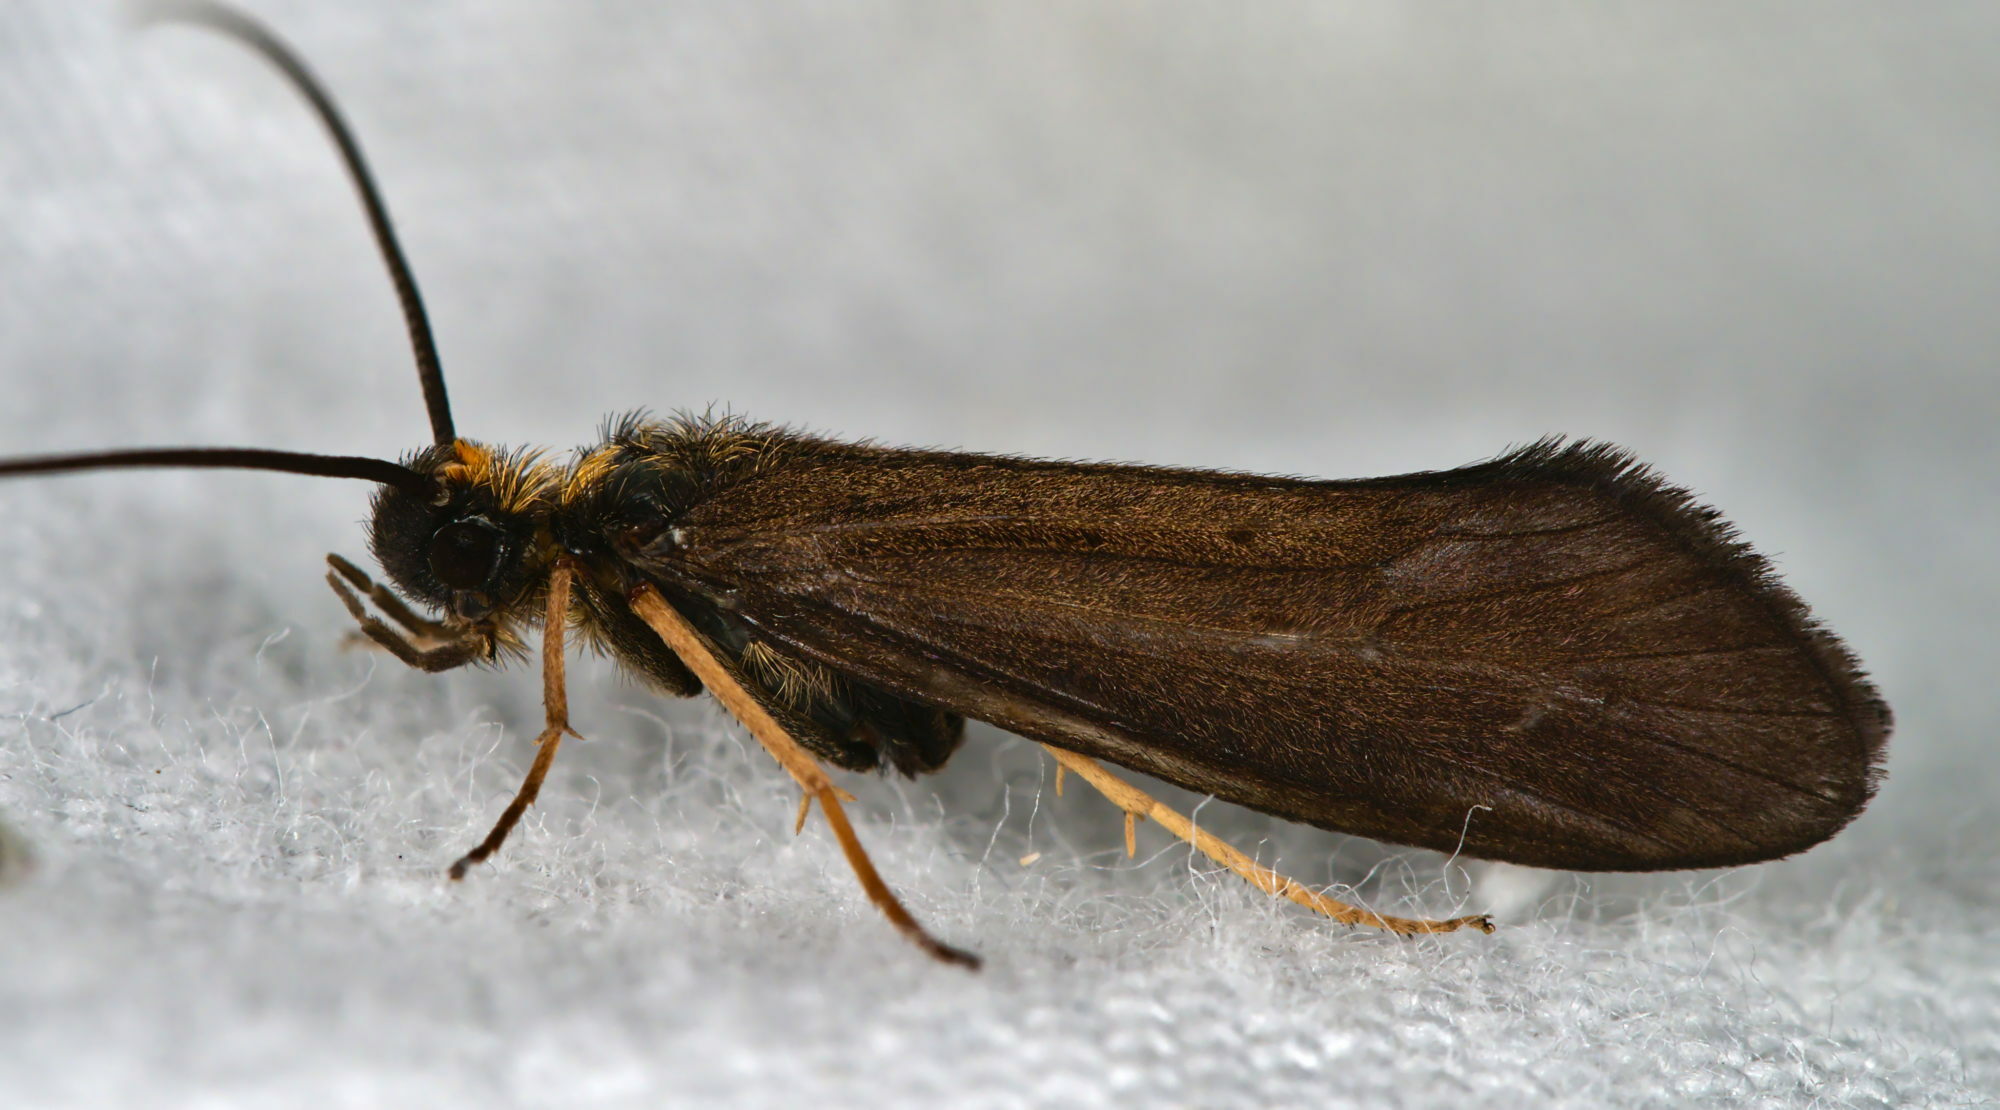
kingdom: Animalia
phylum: Arthropoda
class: Insecta
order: Trichoptera
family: Sericostomatidae
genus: Sericostoma
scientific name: Sericostoma personatum
